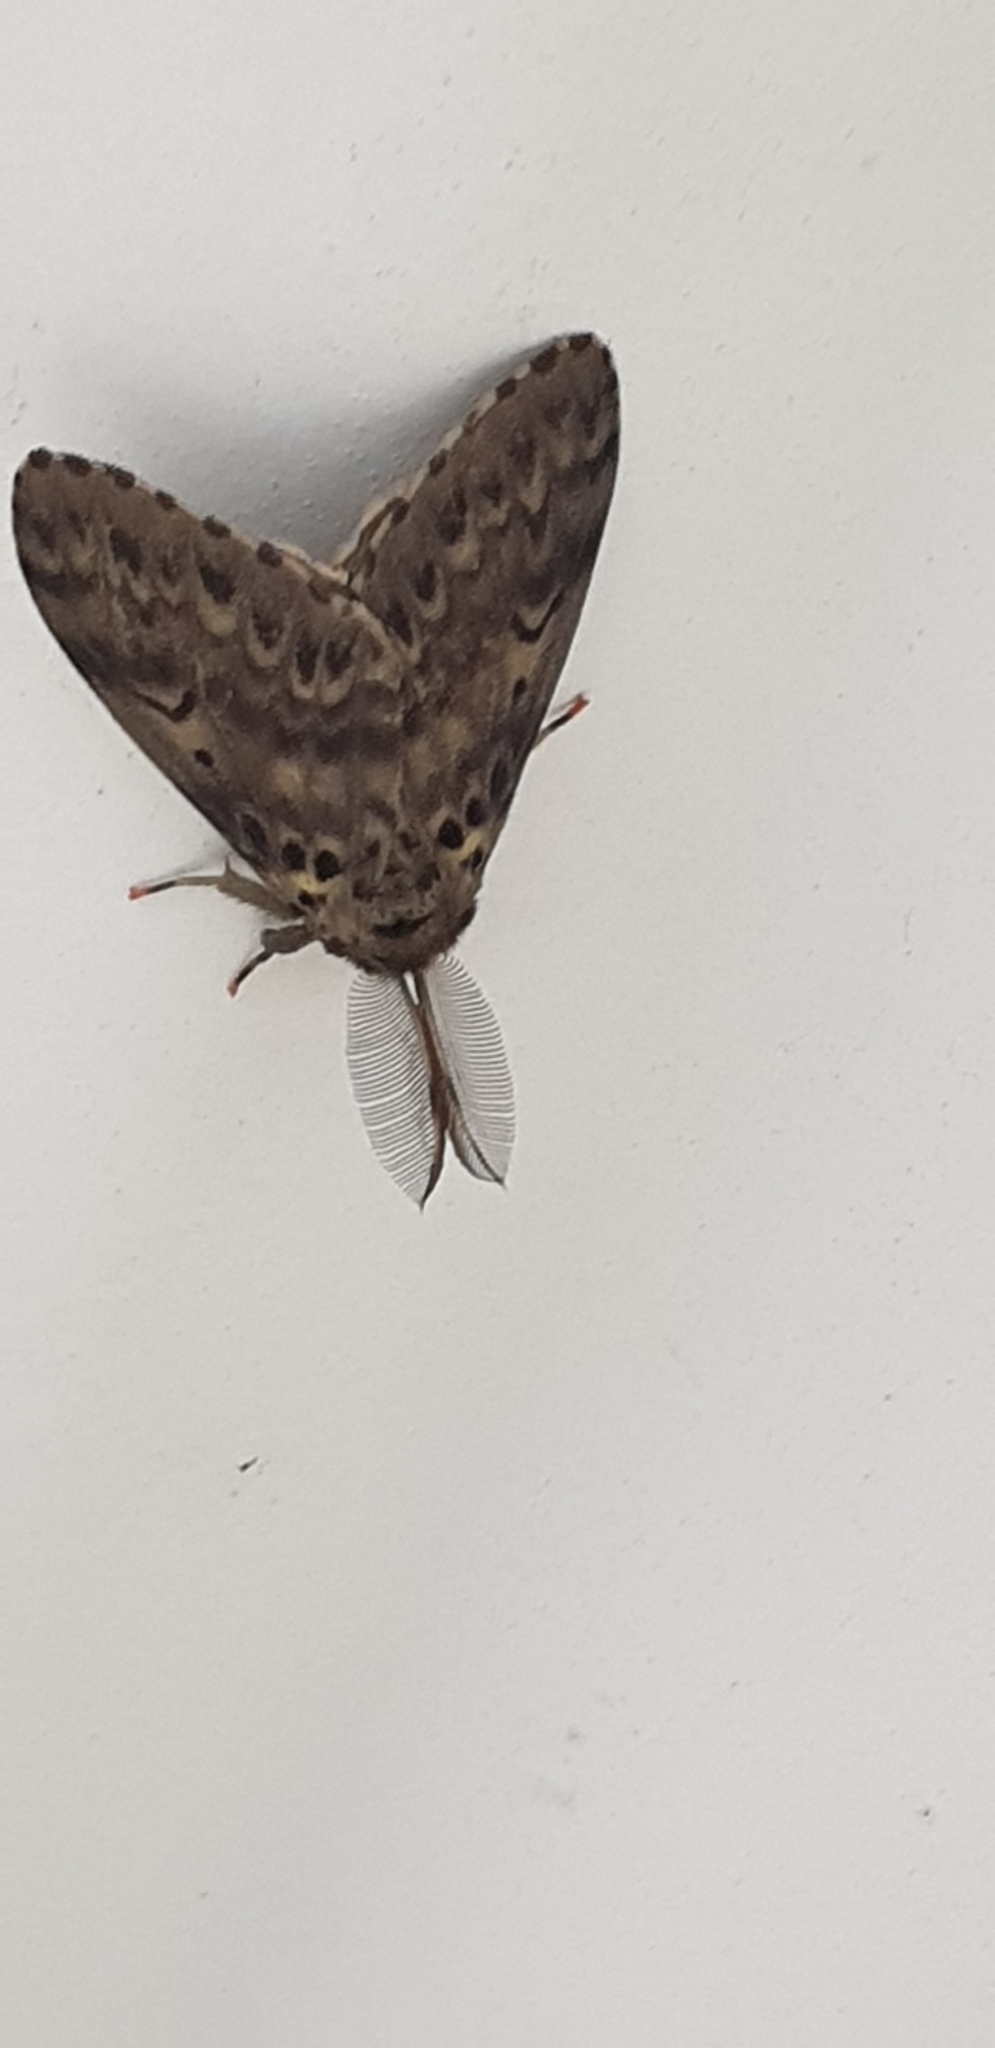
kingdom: Animalia
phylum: Arthropoda
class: Insecta
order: Lepidoptera
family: Erebidae
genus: Lymantria
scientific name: Lymantria lunata
